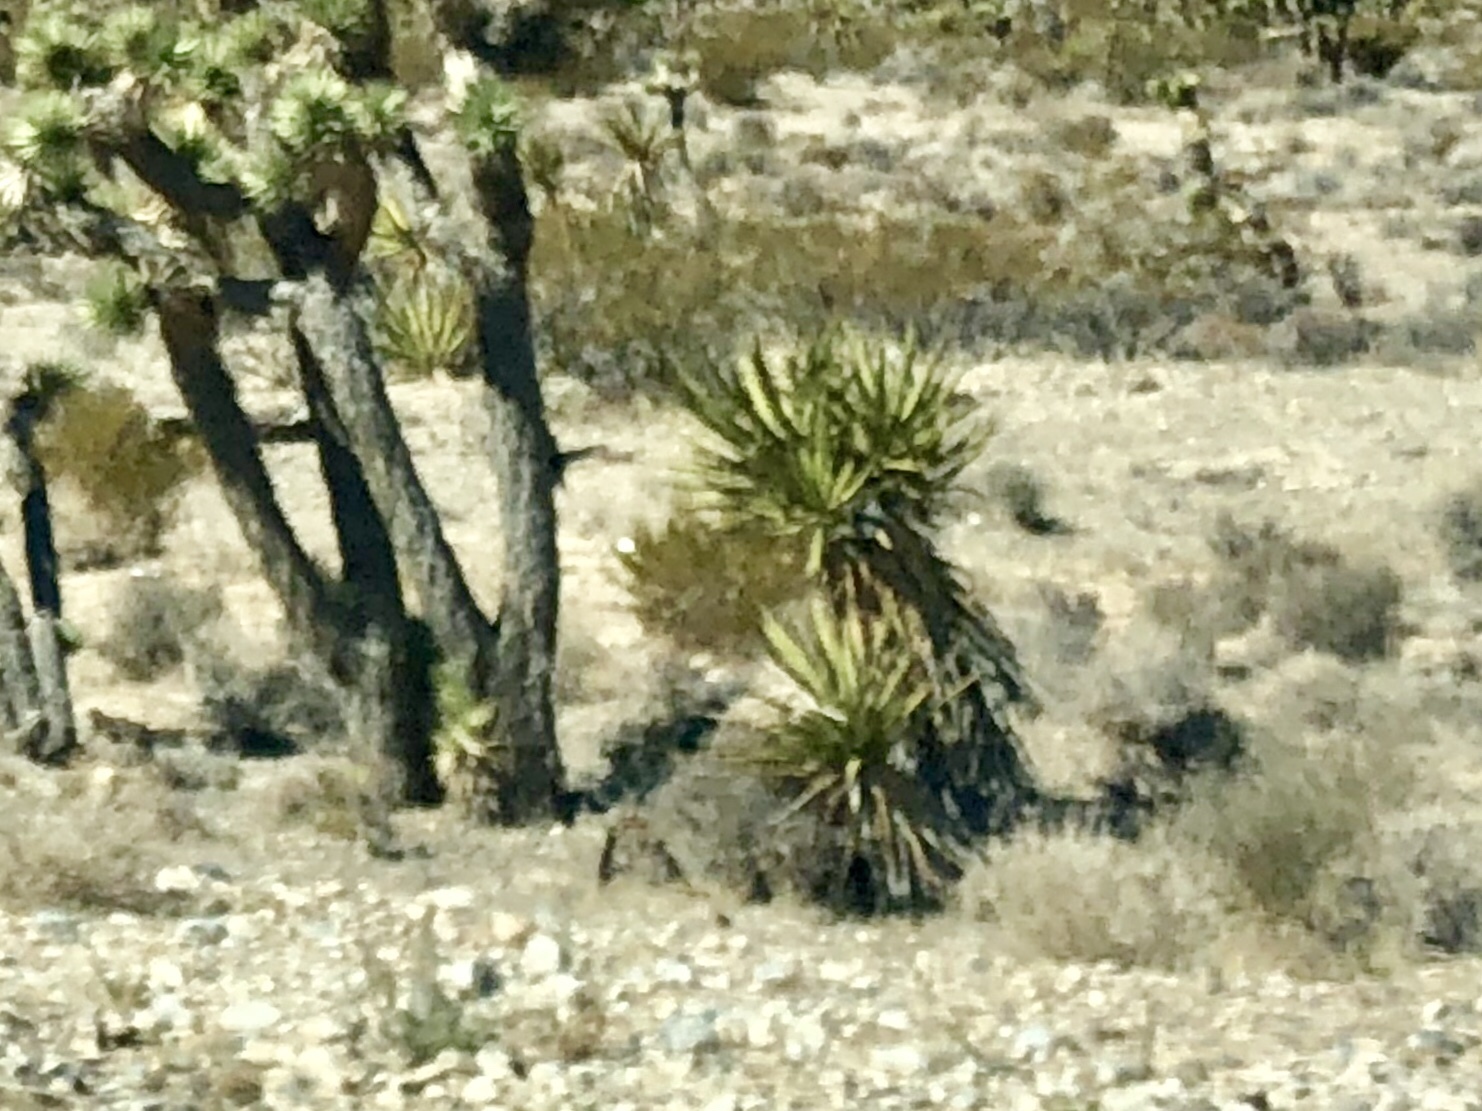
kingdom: Plantae
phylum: Tracheophyta
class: Liliopsida
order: Asparagales
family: Asparagaceae
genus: Yucca
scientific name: Yucca schidigera
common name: Mojave yucca
